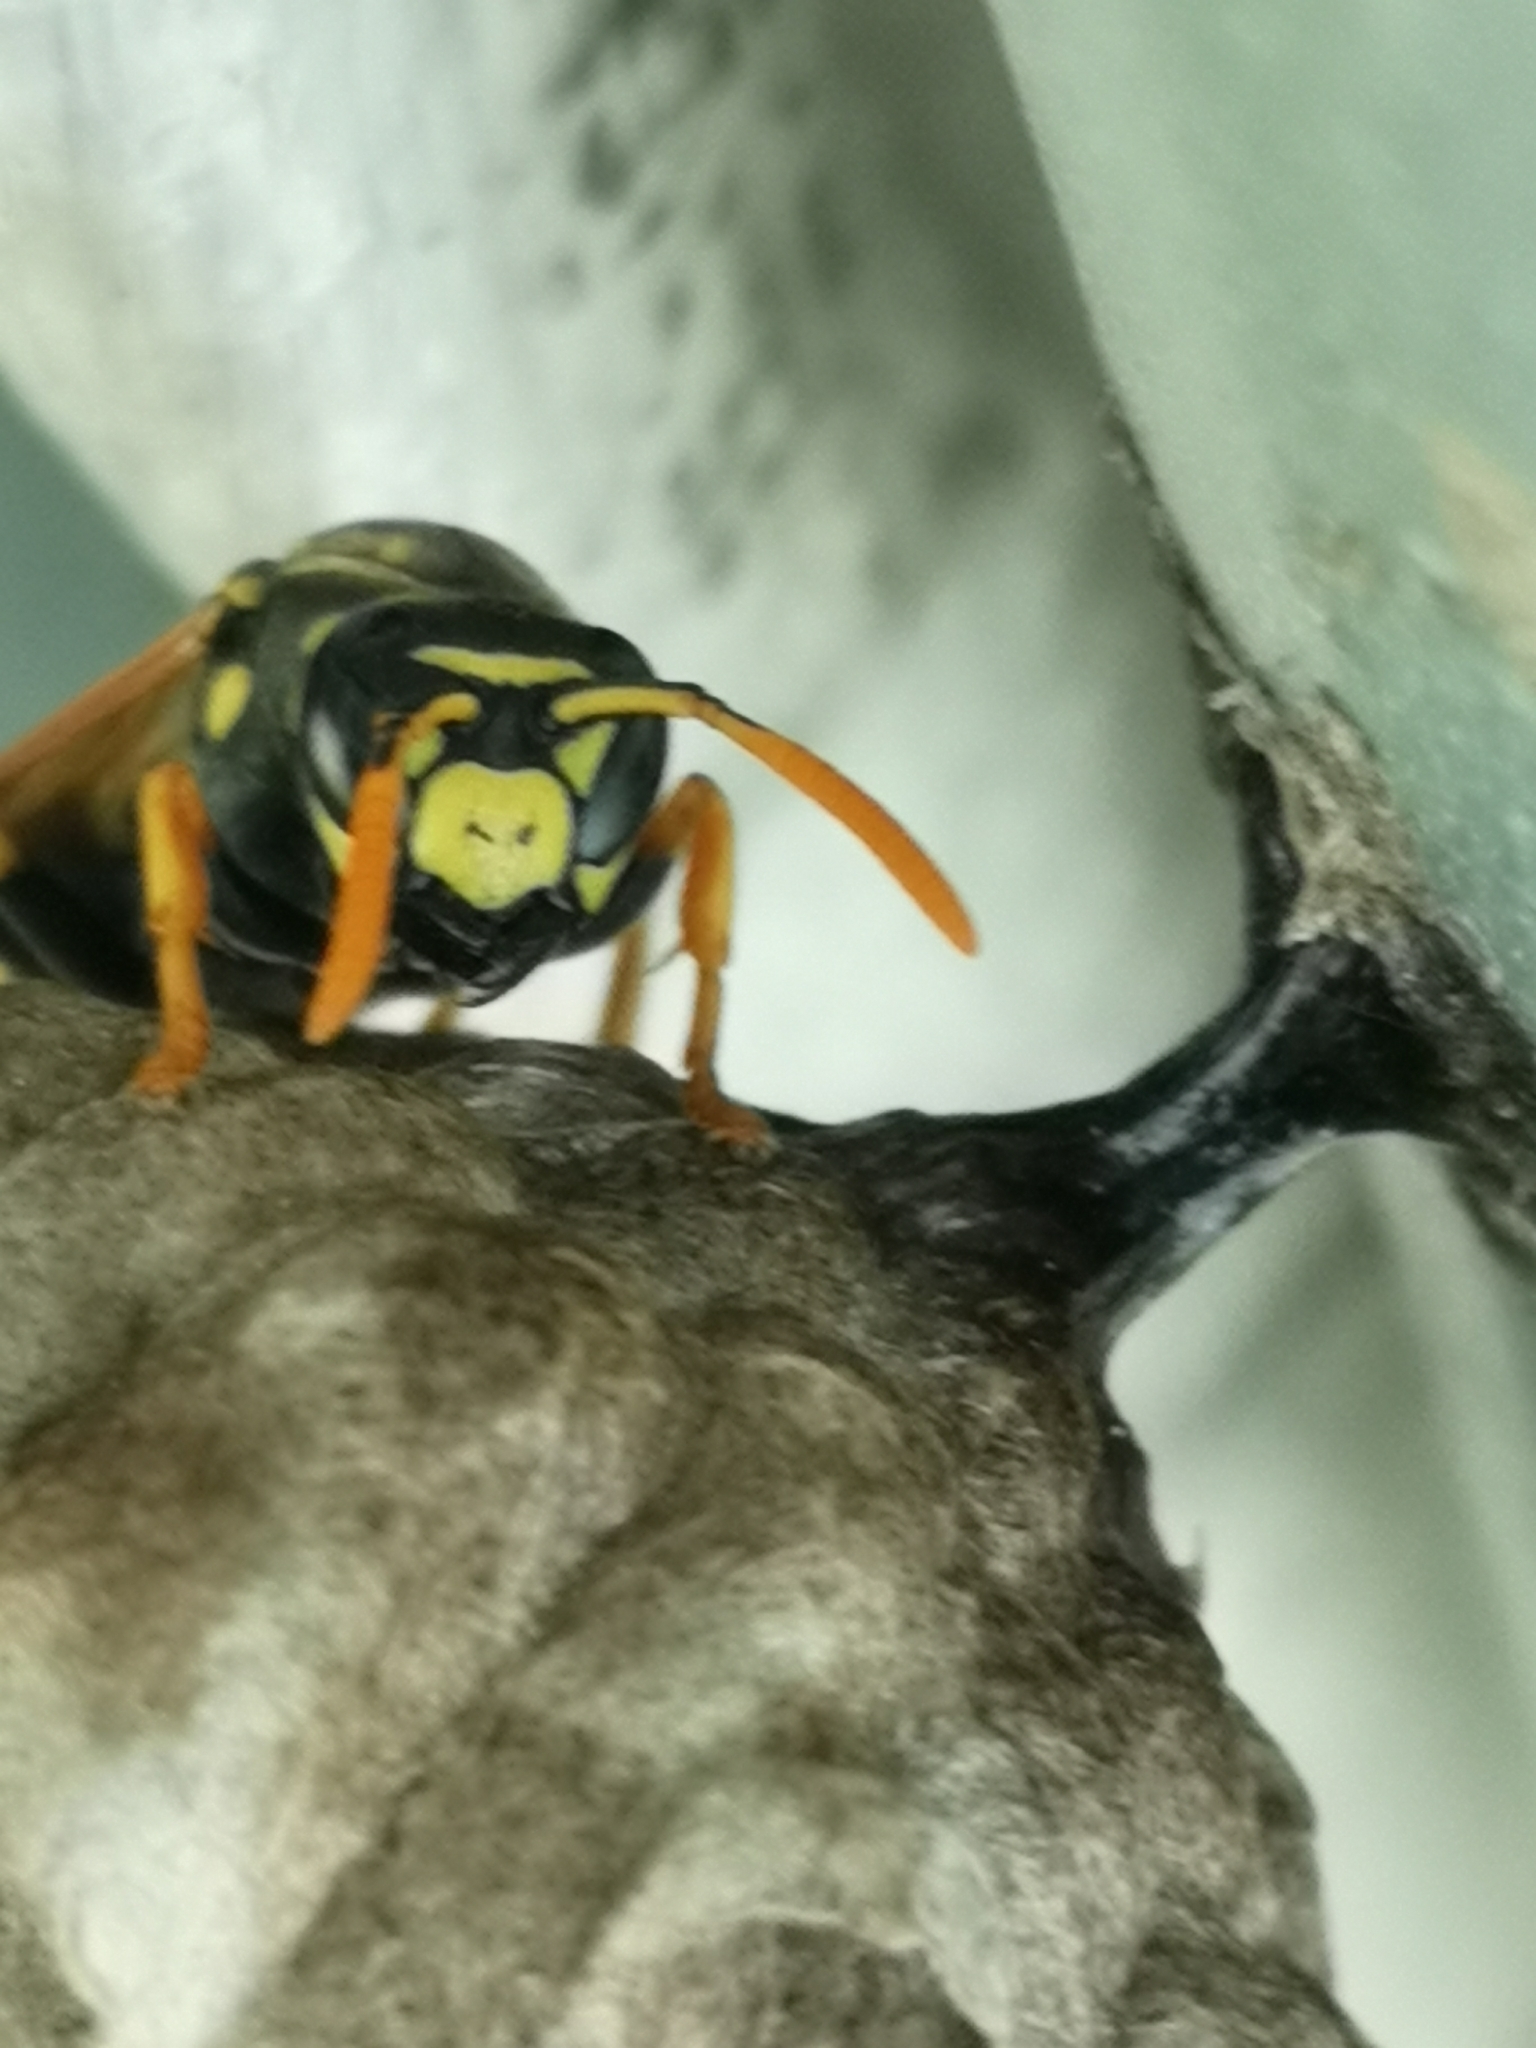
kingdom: Animalia
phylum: Arthropoda
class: Insecta
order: Hymenoptera
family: Eumenidae
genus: Polistes
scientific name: Polistes dominula
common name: Paper wasp
